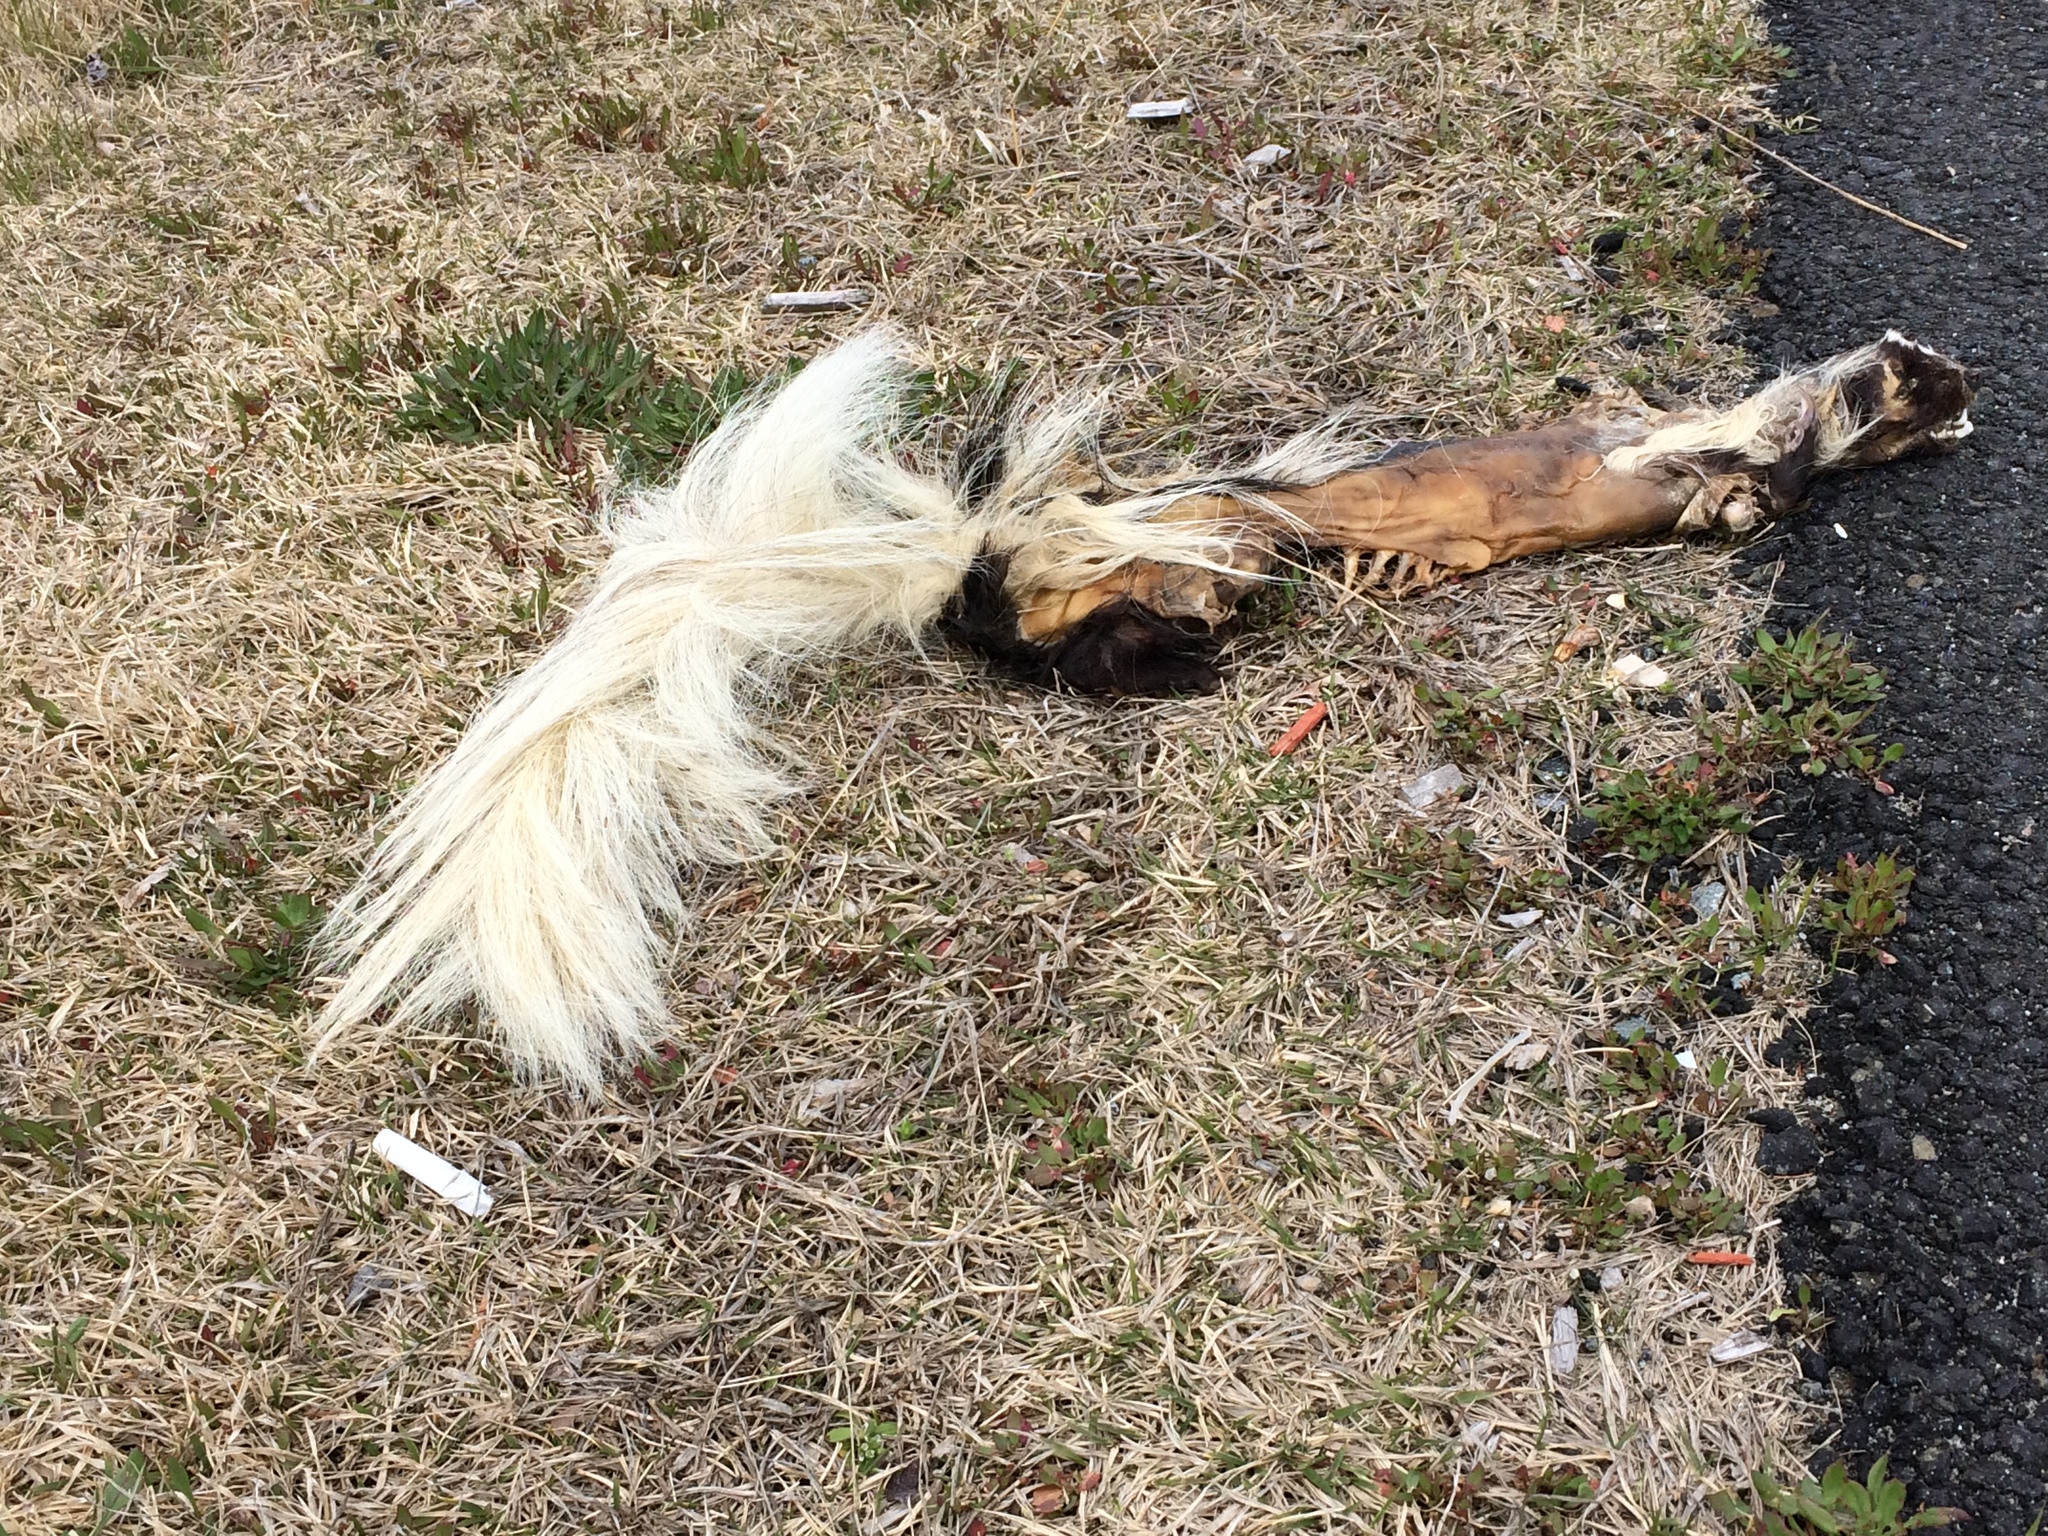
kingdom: Animalia
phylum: Chordata
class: Mammalia
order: Carnivora
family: Mephitidae
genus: Mephitis
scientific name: Mephitis mephitis
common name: Striped skunk
